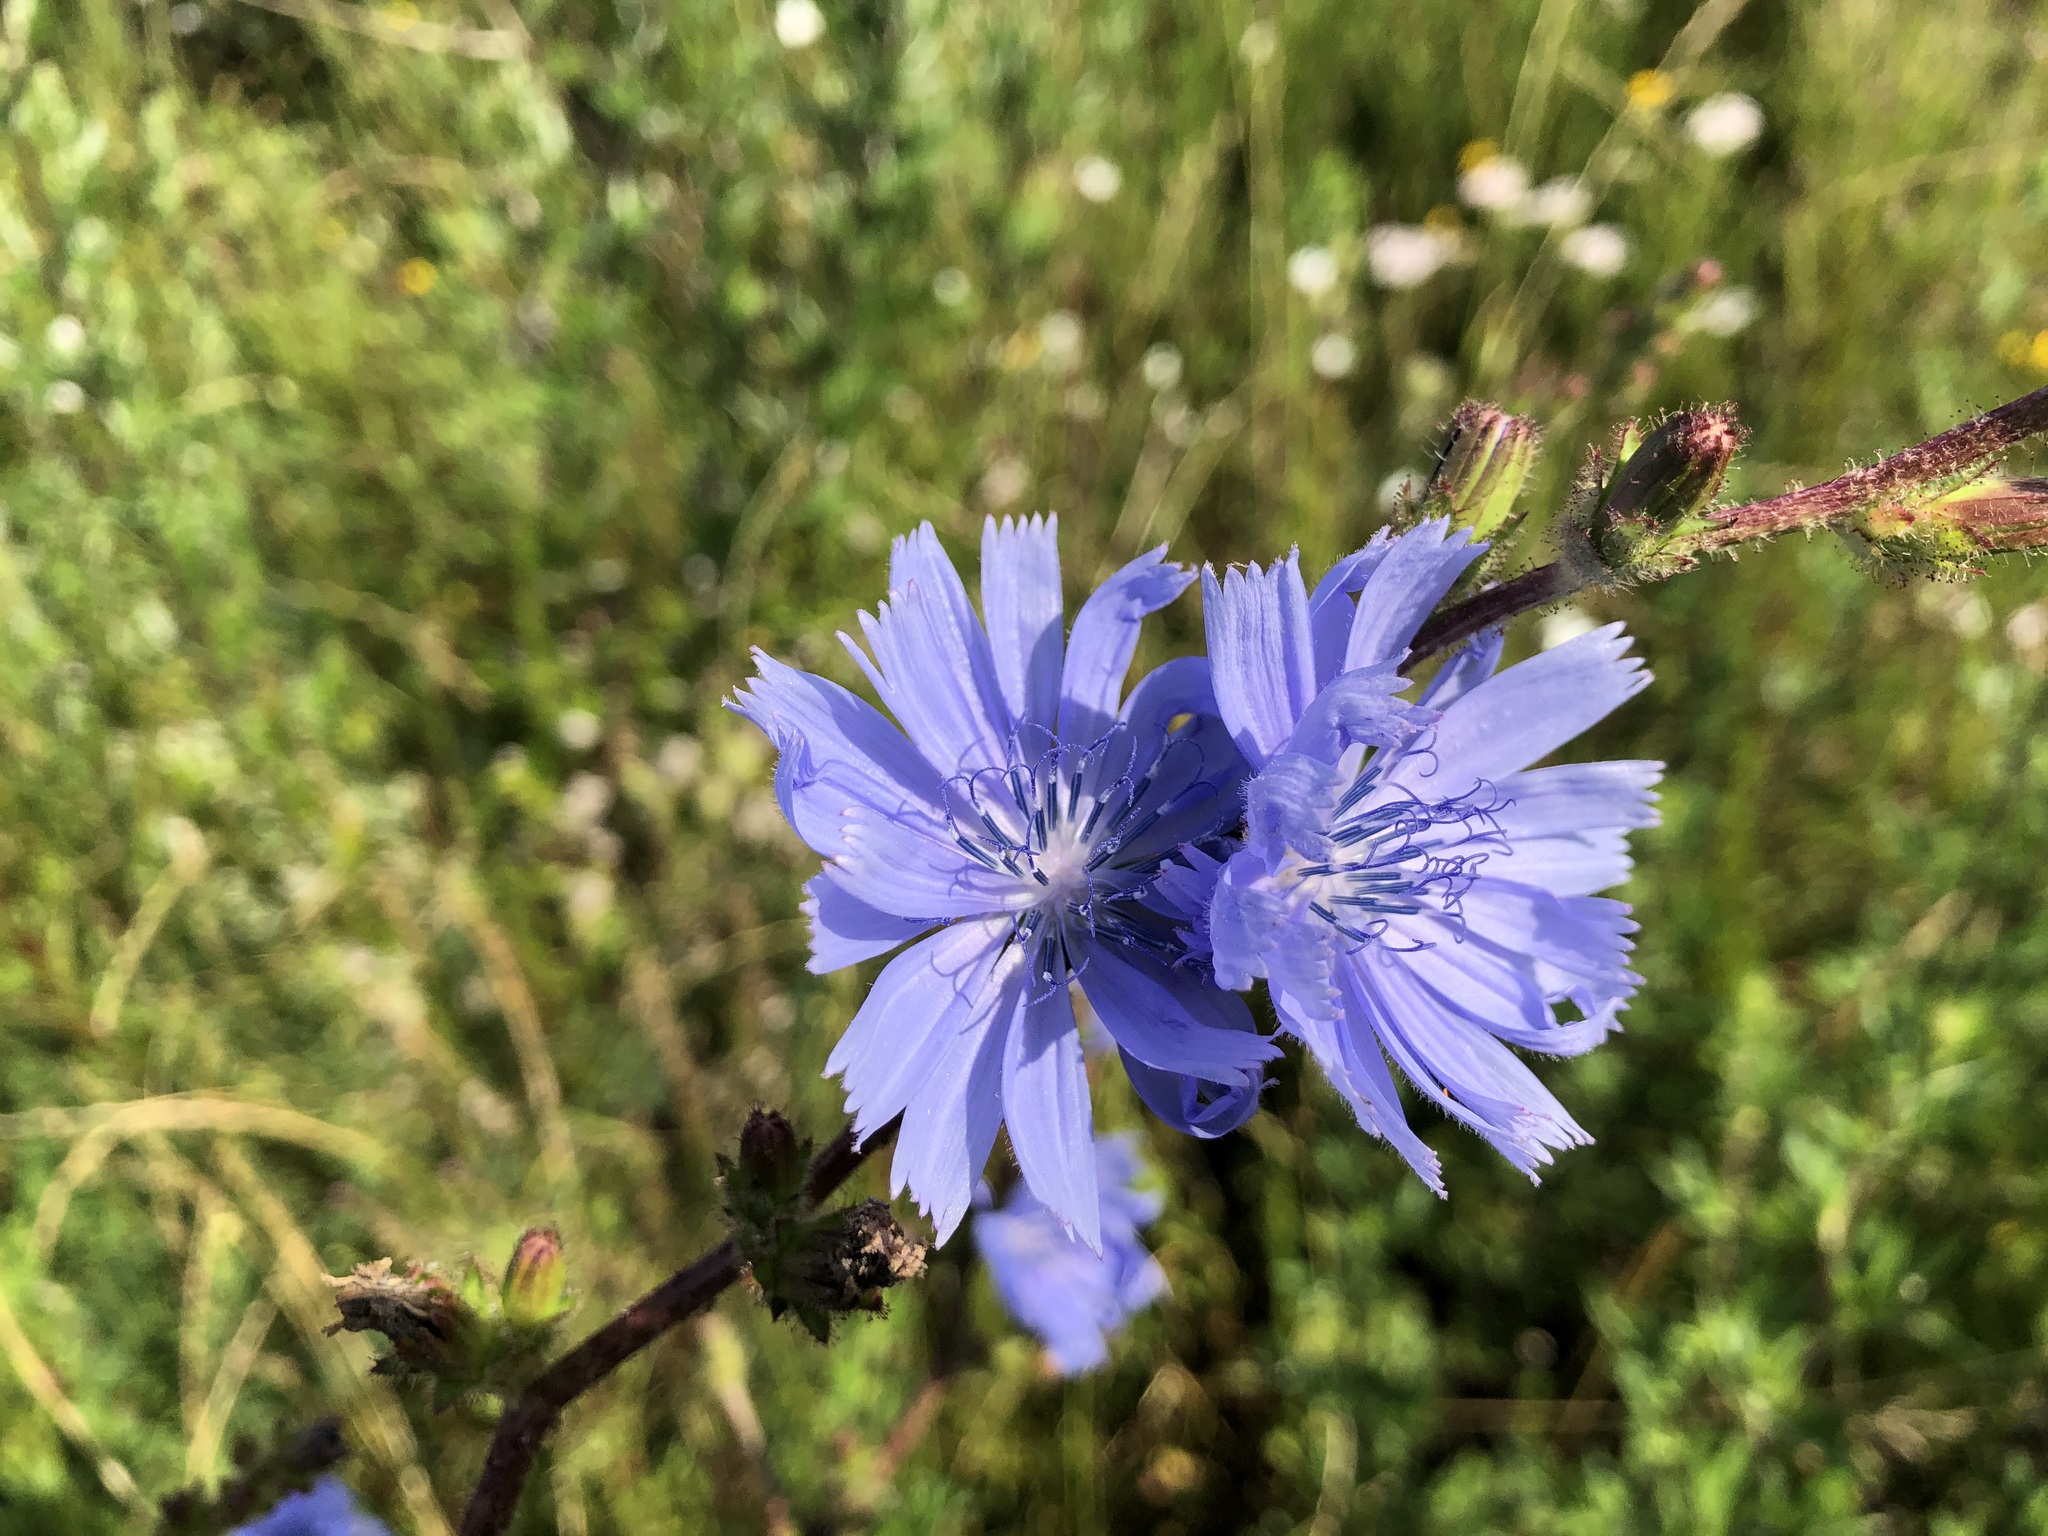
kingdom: Plantae
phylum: Tracheophyta
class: Magnoliopsida
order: Asterales
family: Asteraceae
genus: Cichorium
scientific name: Cichorium intybus
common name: Chicory
